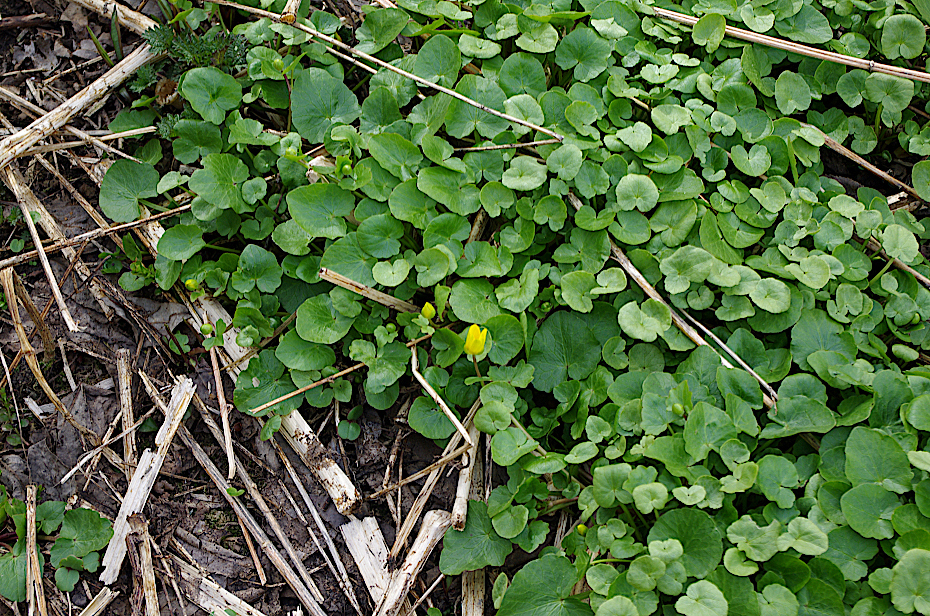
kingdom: Plantae
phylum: Tracheophyta
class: Magnoliopsida
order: Ranunculales
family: Ranunculaceae
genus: Ficaria
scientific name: Ficaria verna
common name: Lesser celandine
